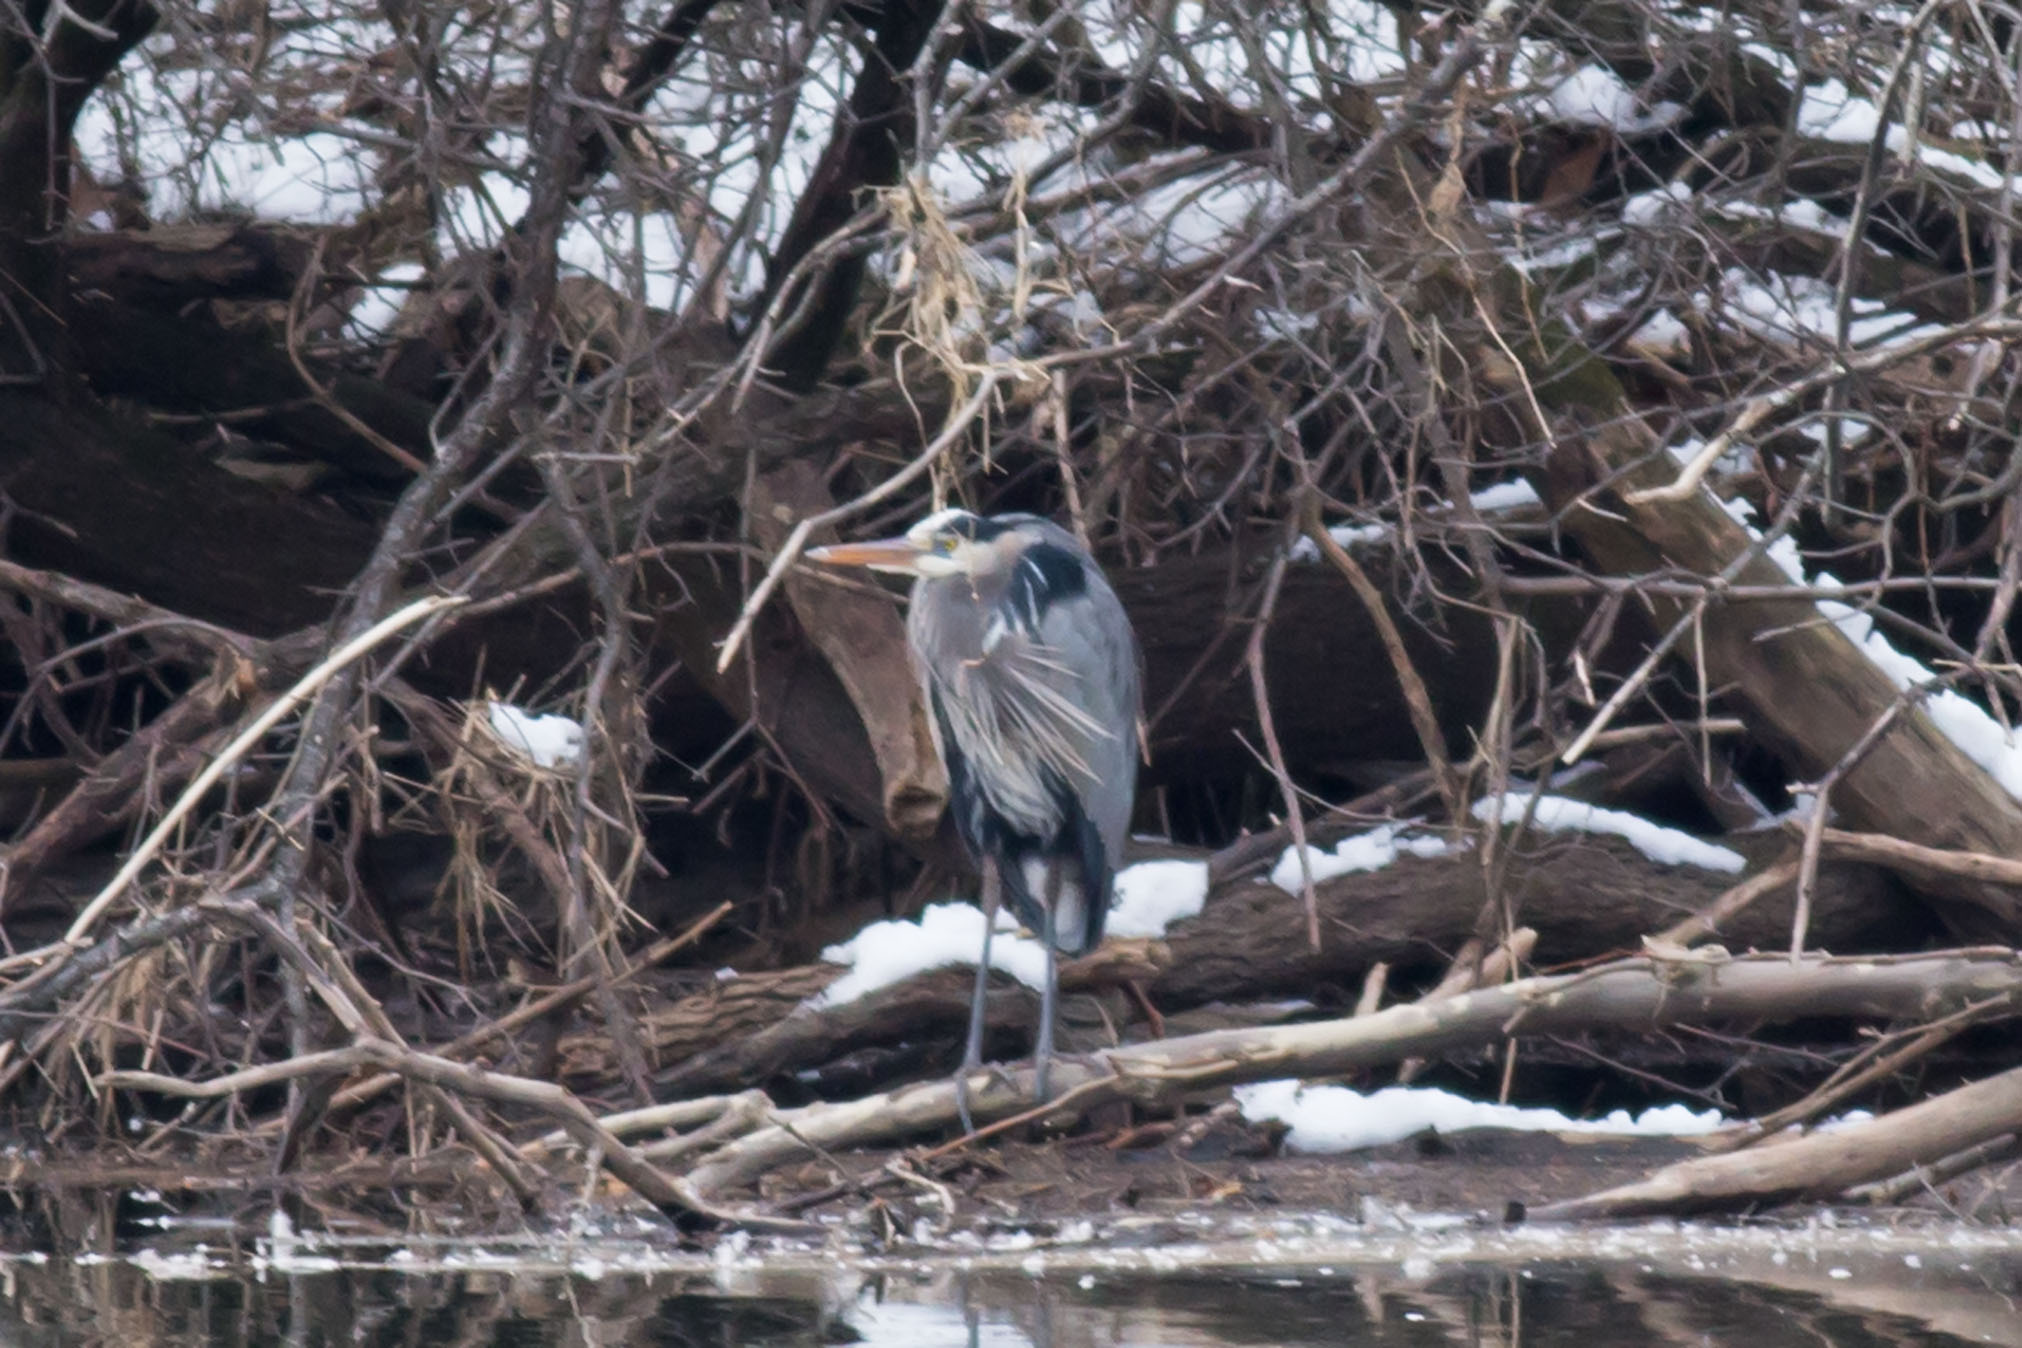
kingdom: Animalia
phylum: Chordata
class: Aves
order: Pelecaniformes
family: Ardeidae
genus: Ardea
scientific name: Ardea herodias
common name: Great blue heron
